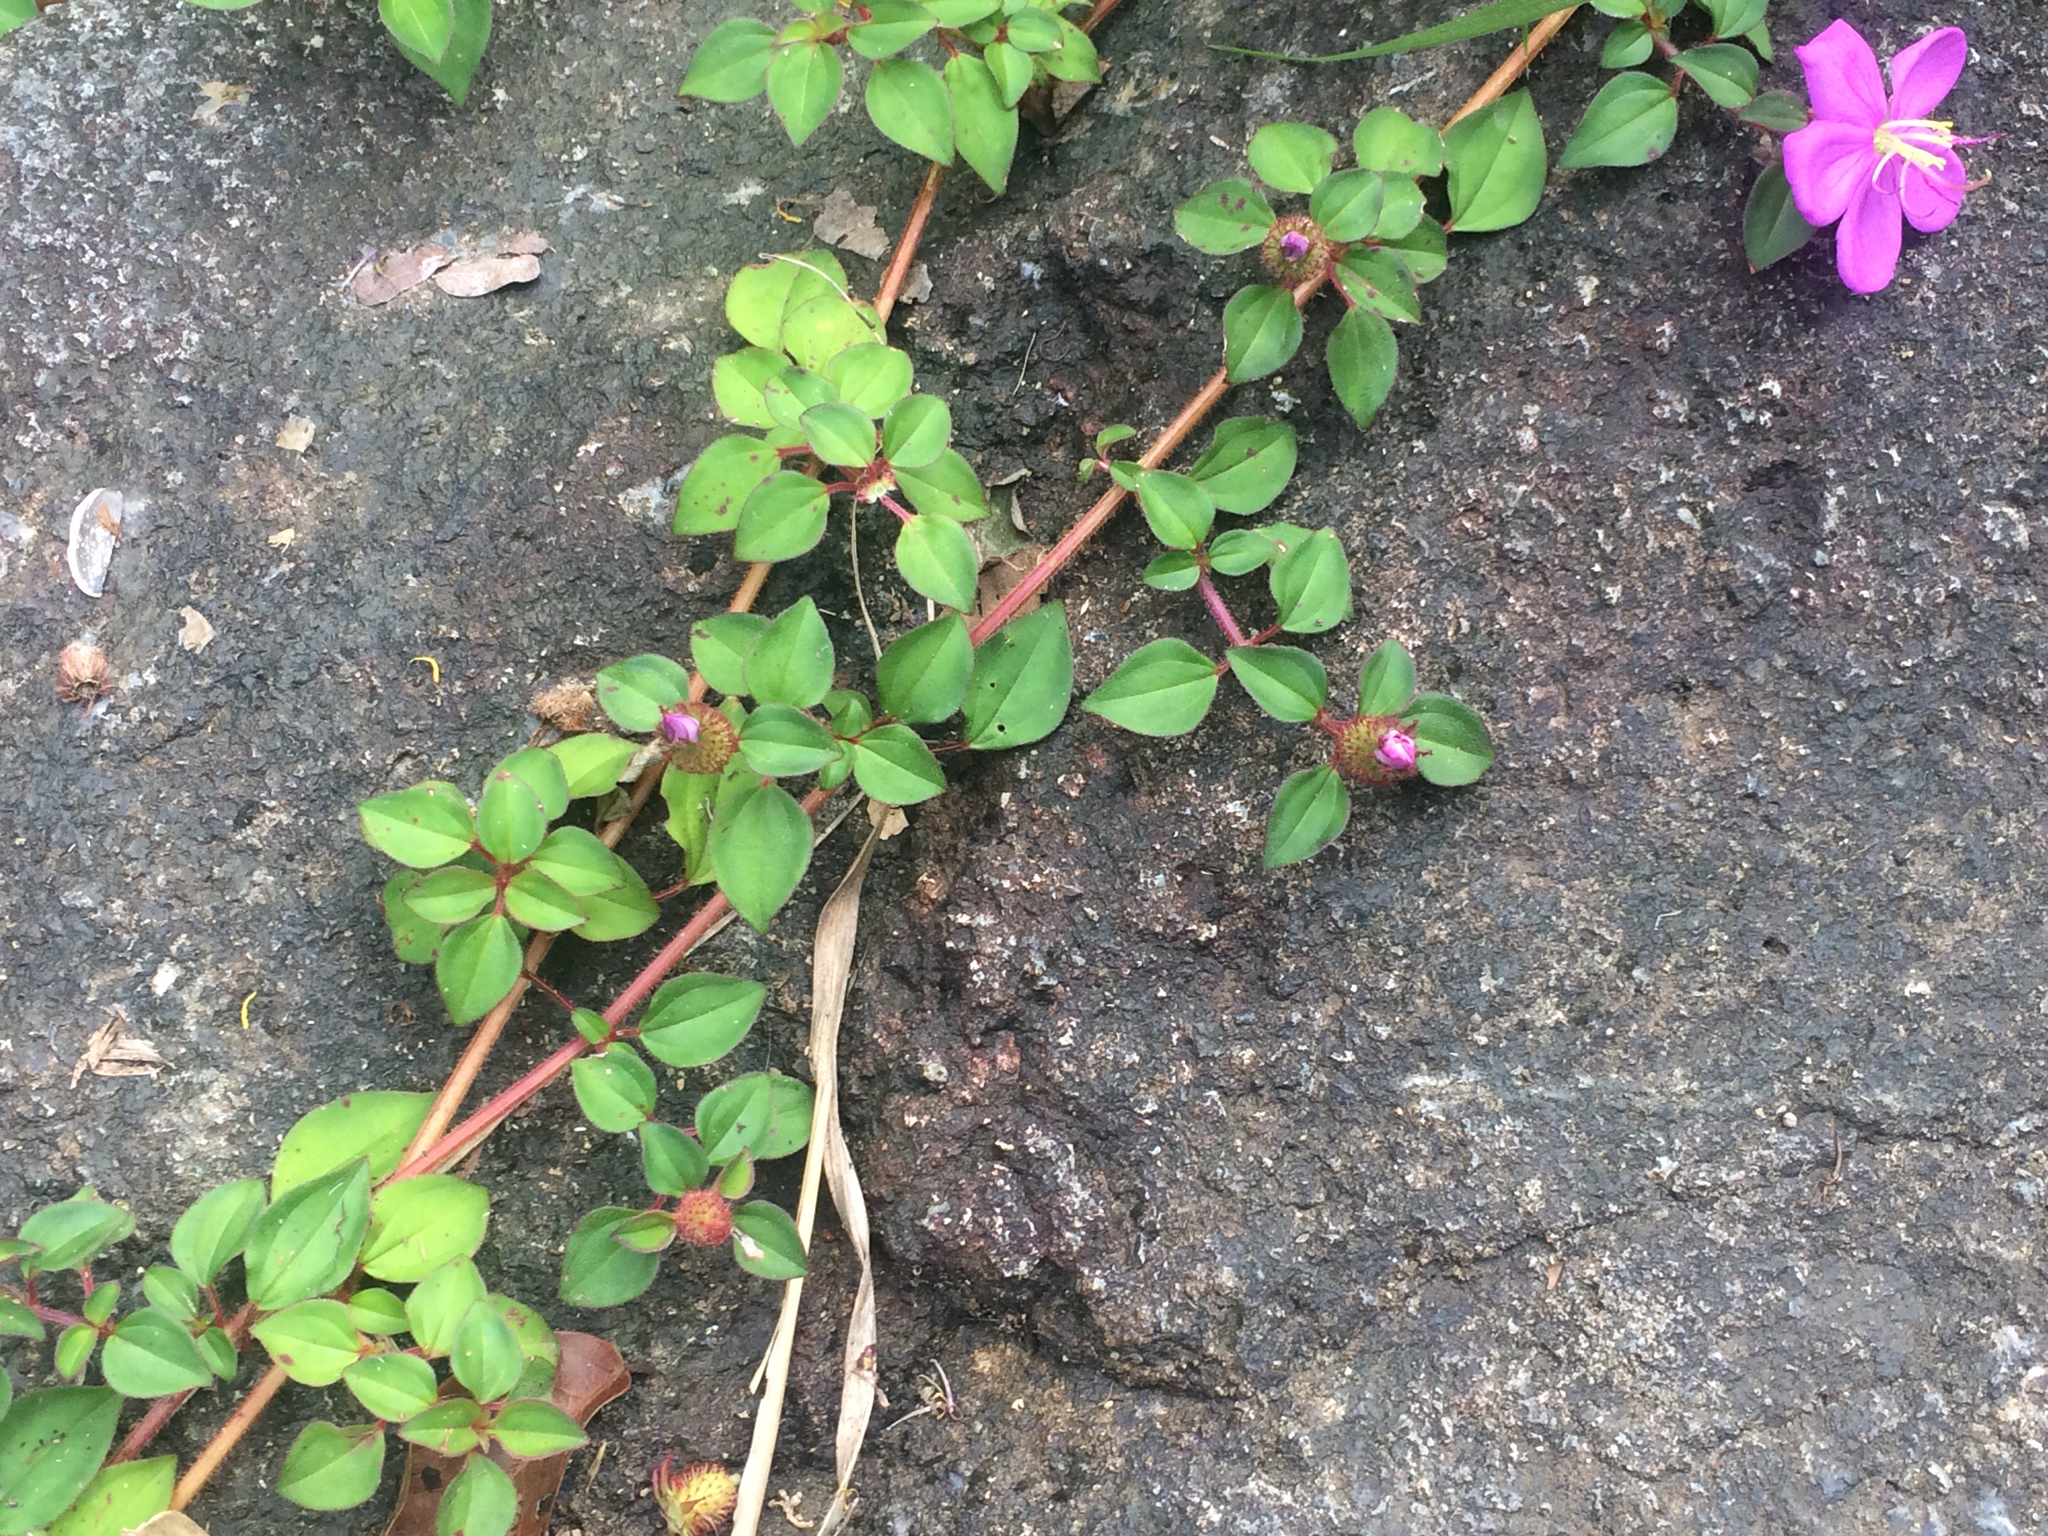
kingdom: Plantae
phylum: Tracheophyta
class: Magnoliopsida
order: Myrtales
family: Melastomataceae
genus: Heterotis
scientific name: Heterotis rotundifolia
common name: Pinklady
